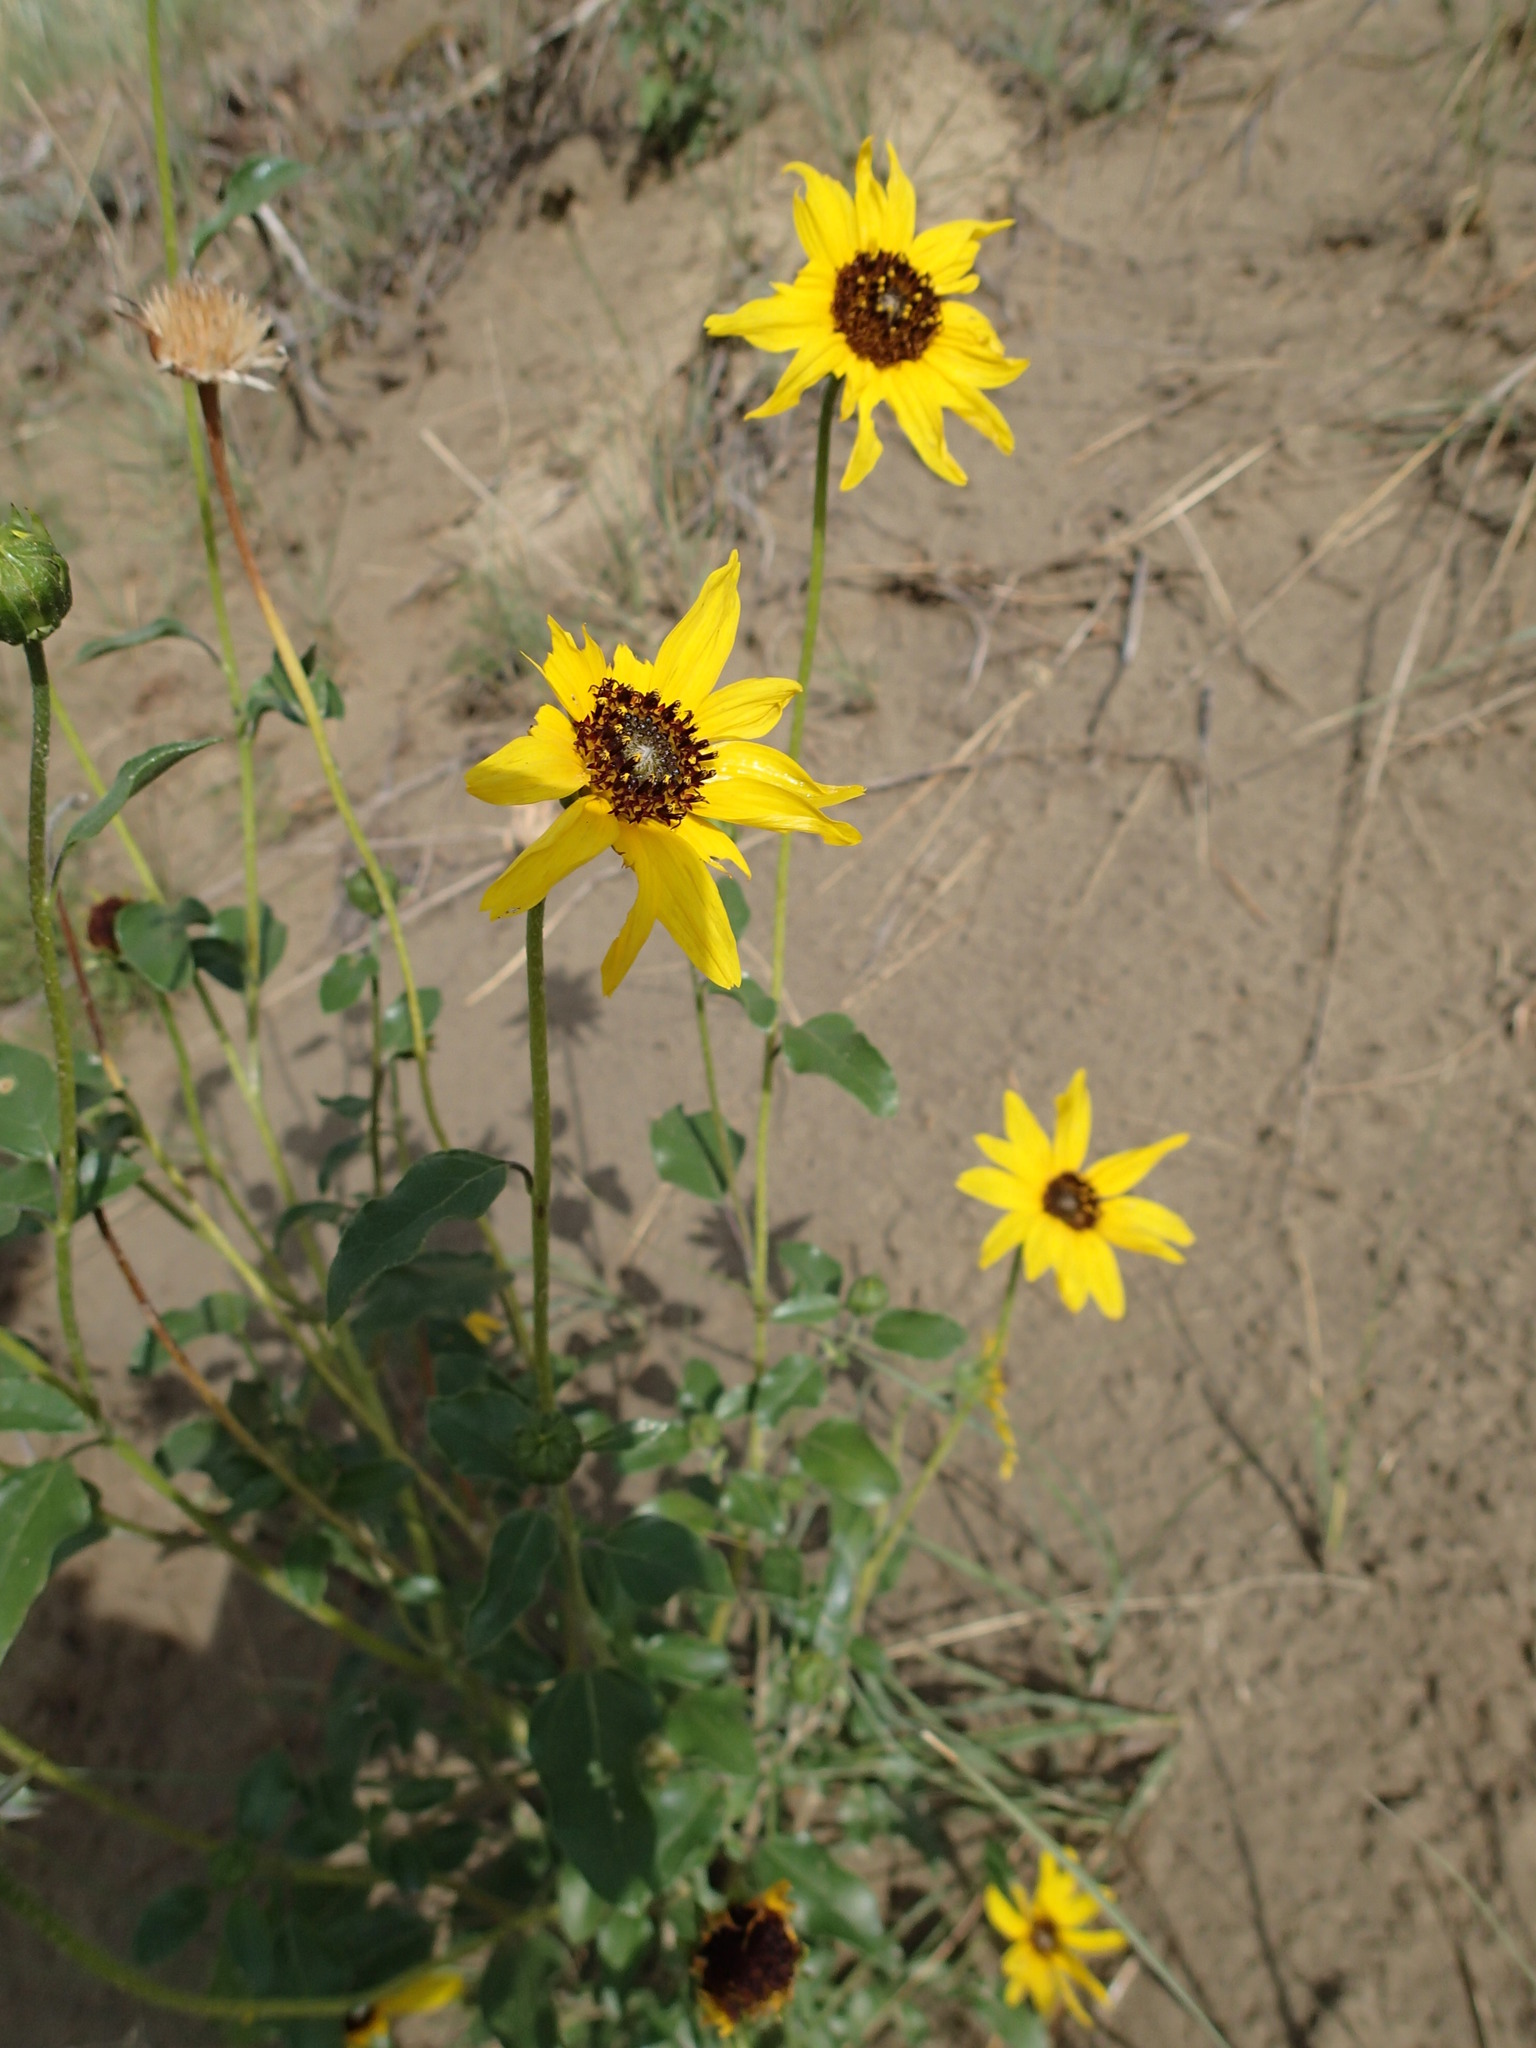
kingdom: Plantae
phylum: Tracheophyta
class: Magnoliopsida
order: Asterales
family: Asteraceae
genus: Helianthus
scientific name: Helianthus petiolaris
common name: Lesser sunflower
